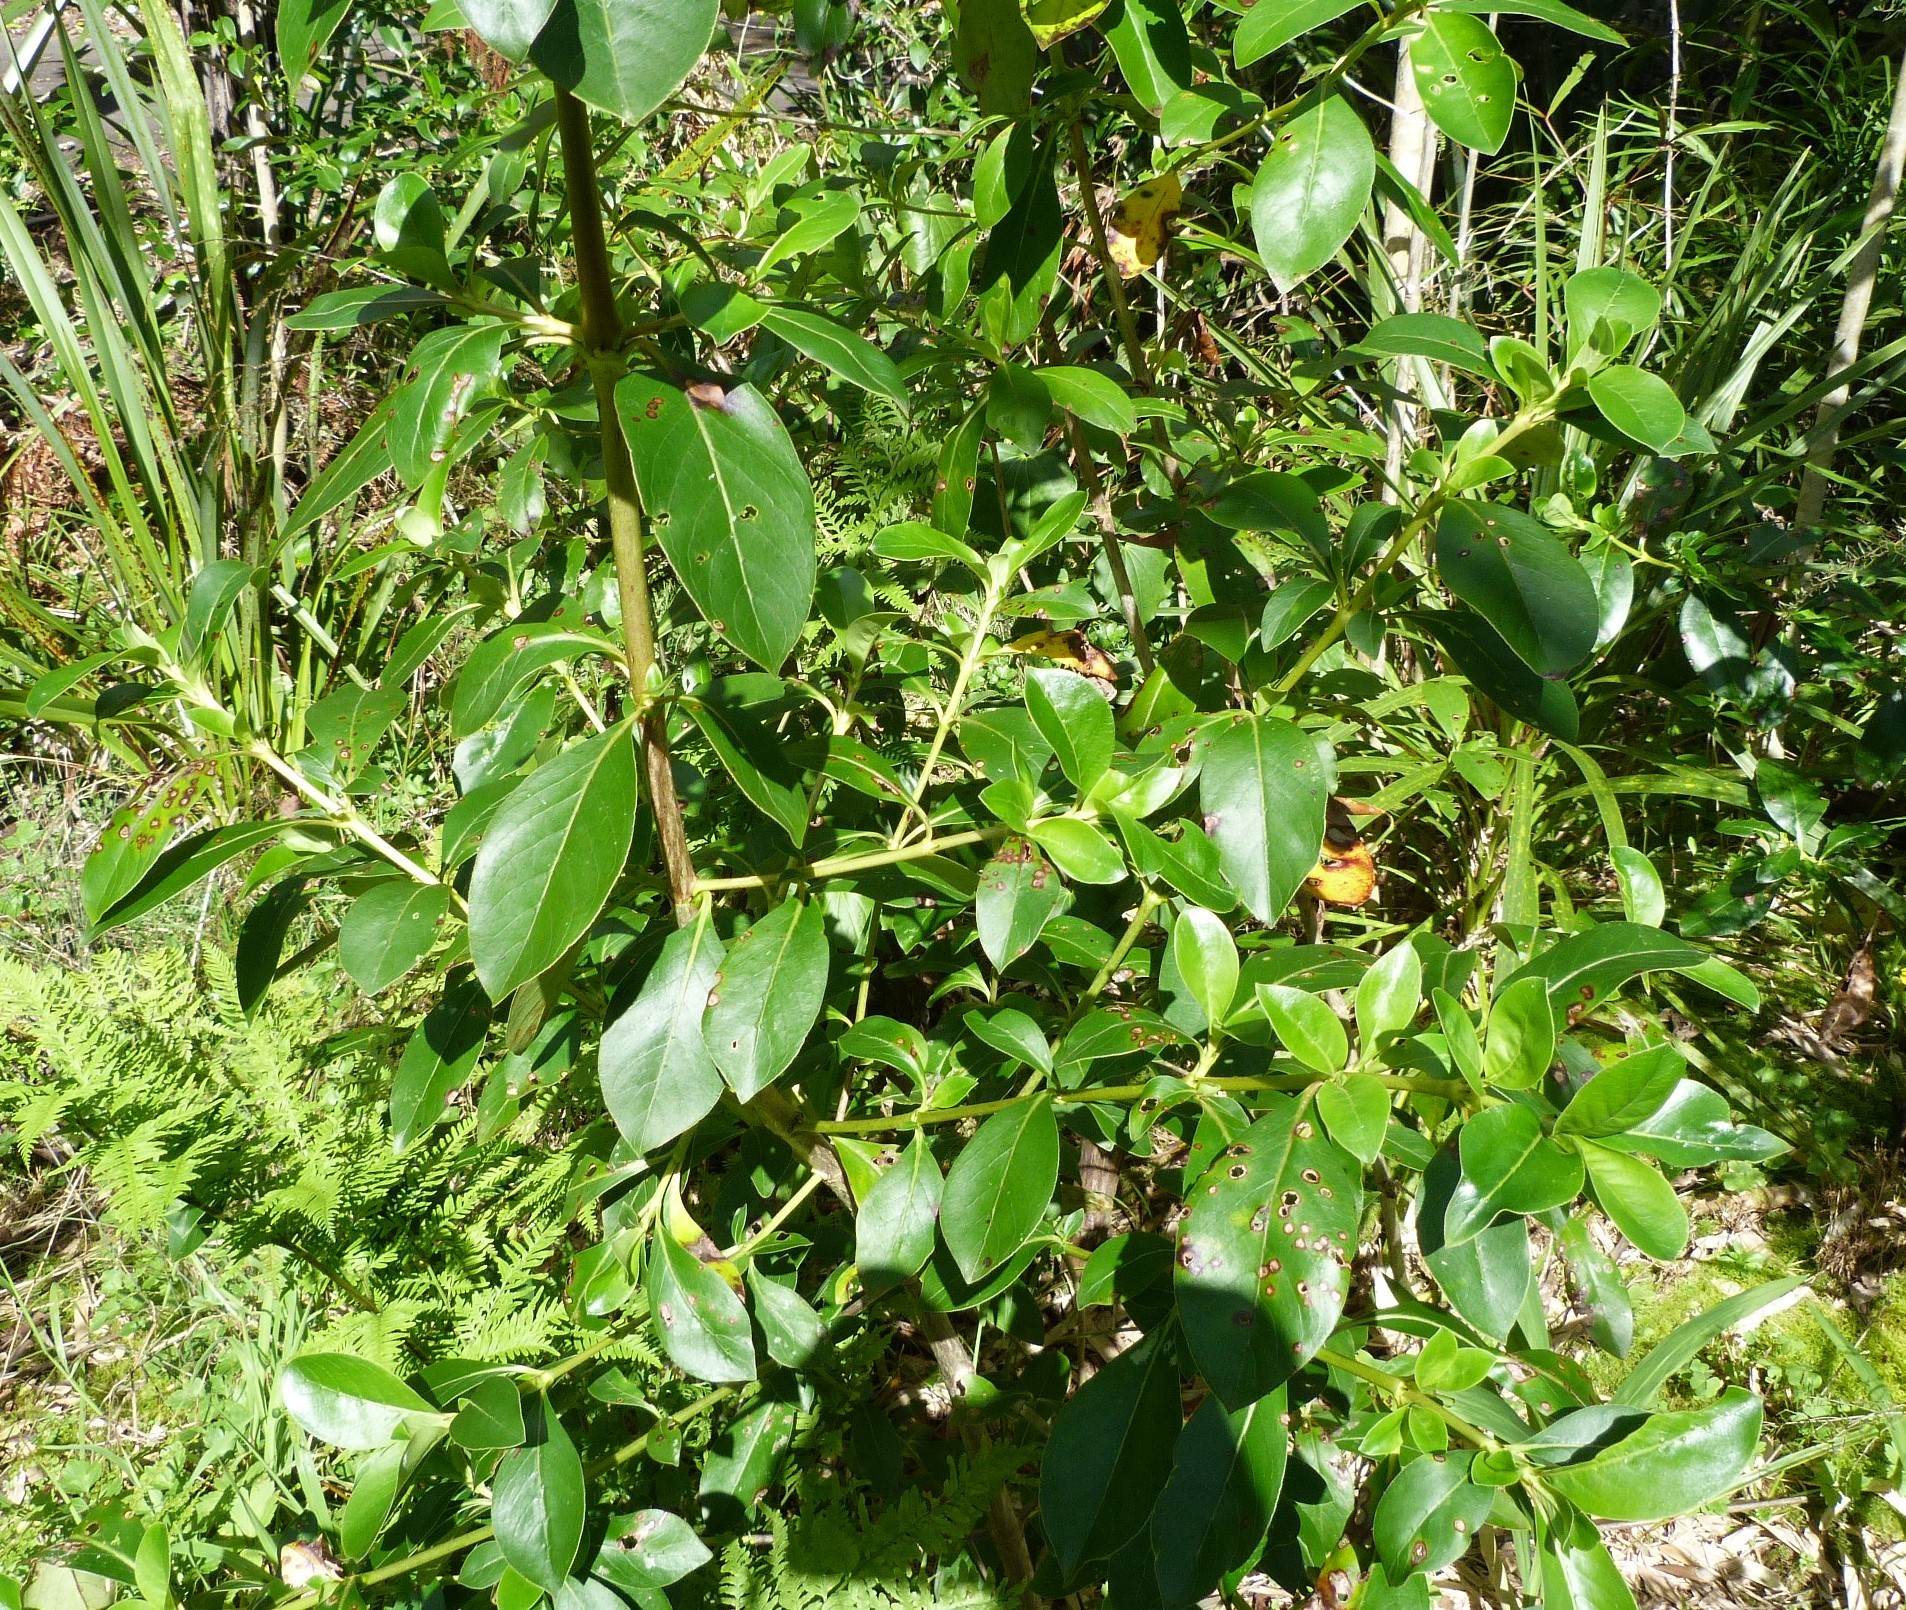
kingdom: Plantae
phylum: Tracheophyta
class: Magnoliopsida
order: Gentianales
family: Rubiaceae
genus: Coprosma
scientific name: Coprosma robusta
